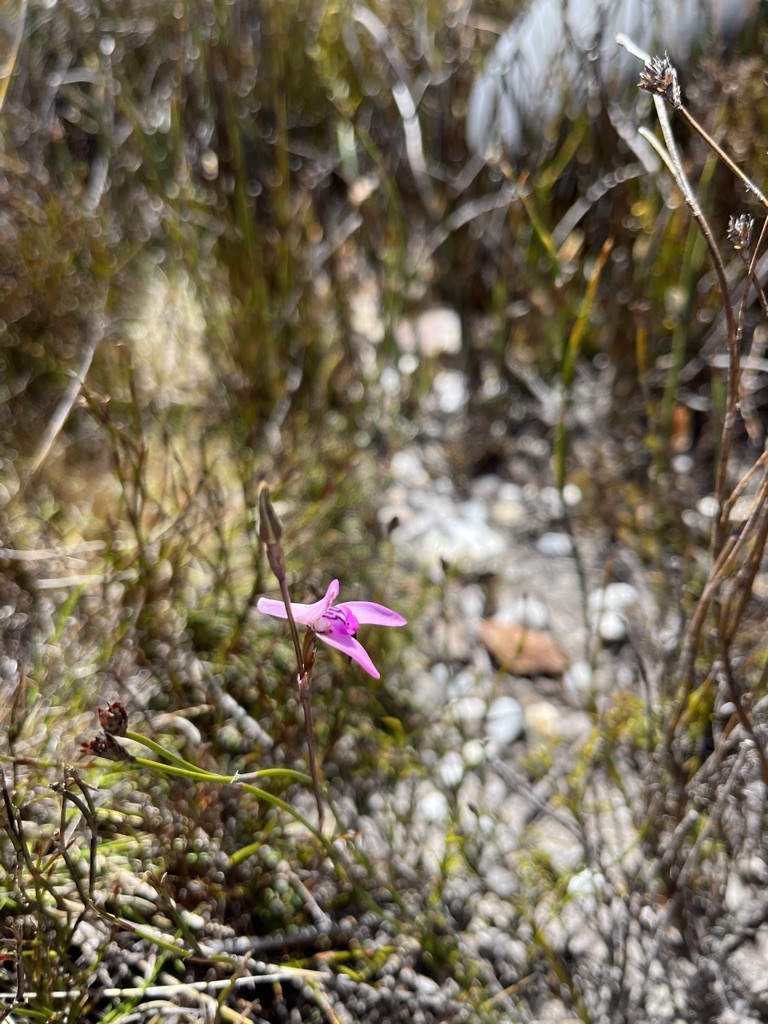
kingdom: Plantae
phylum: Tracheophyta
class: Liliopsida
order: Asparagales
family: Orchidaceae
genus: Disa
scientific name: Disa inflexa
